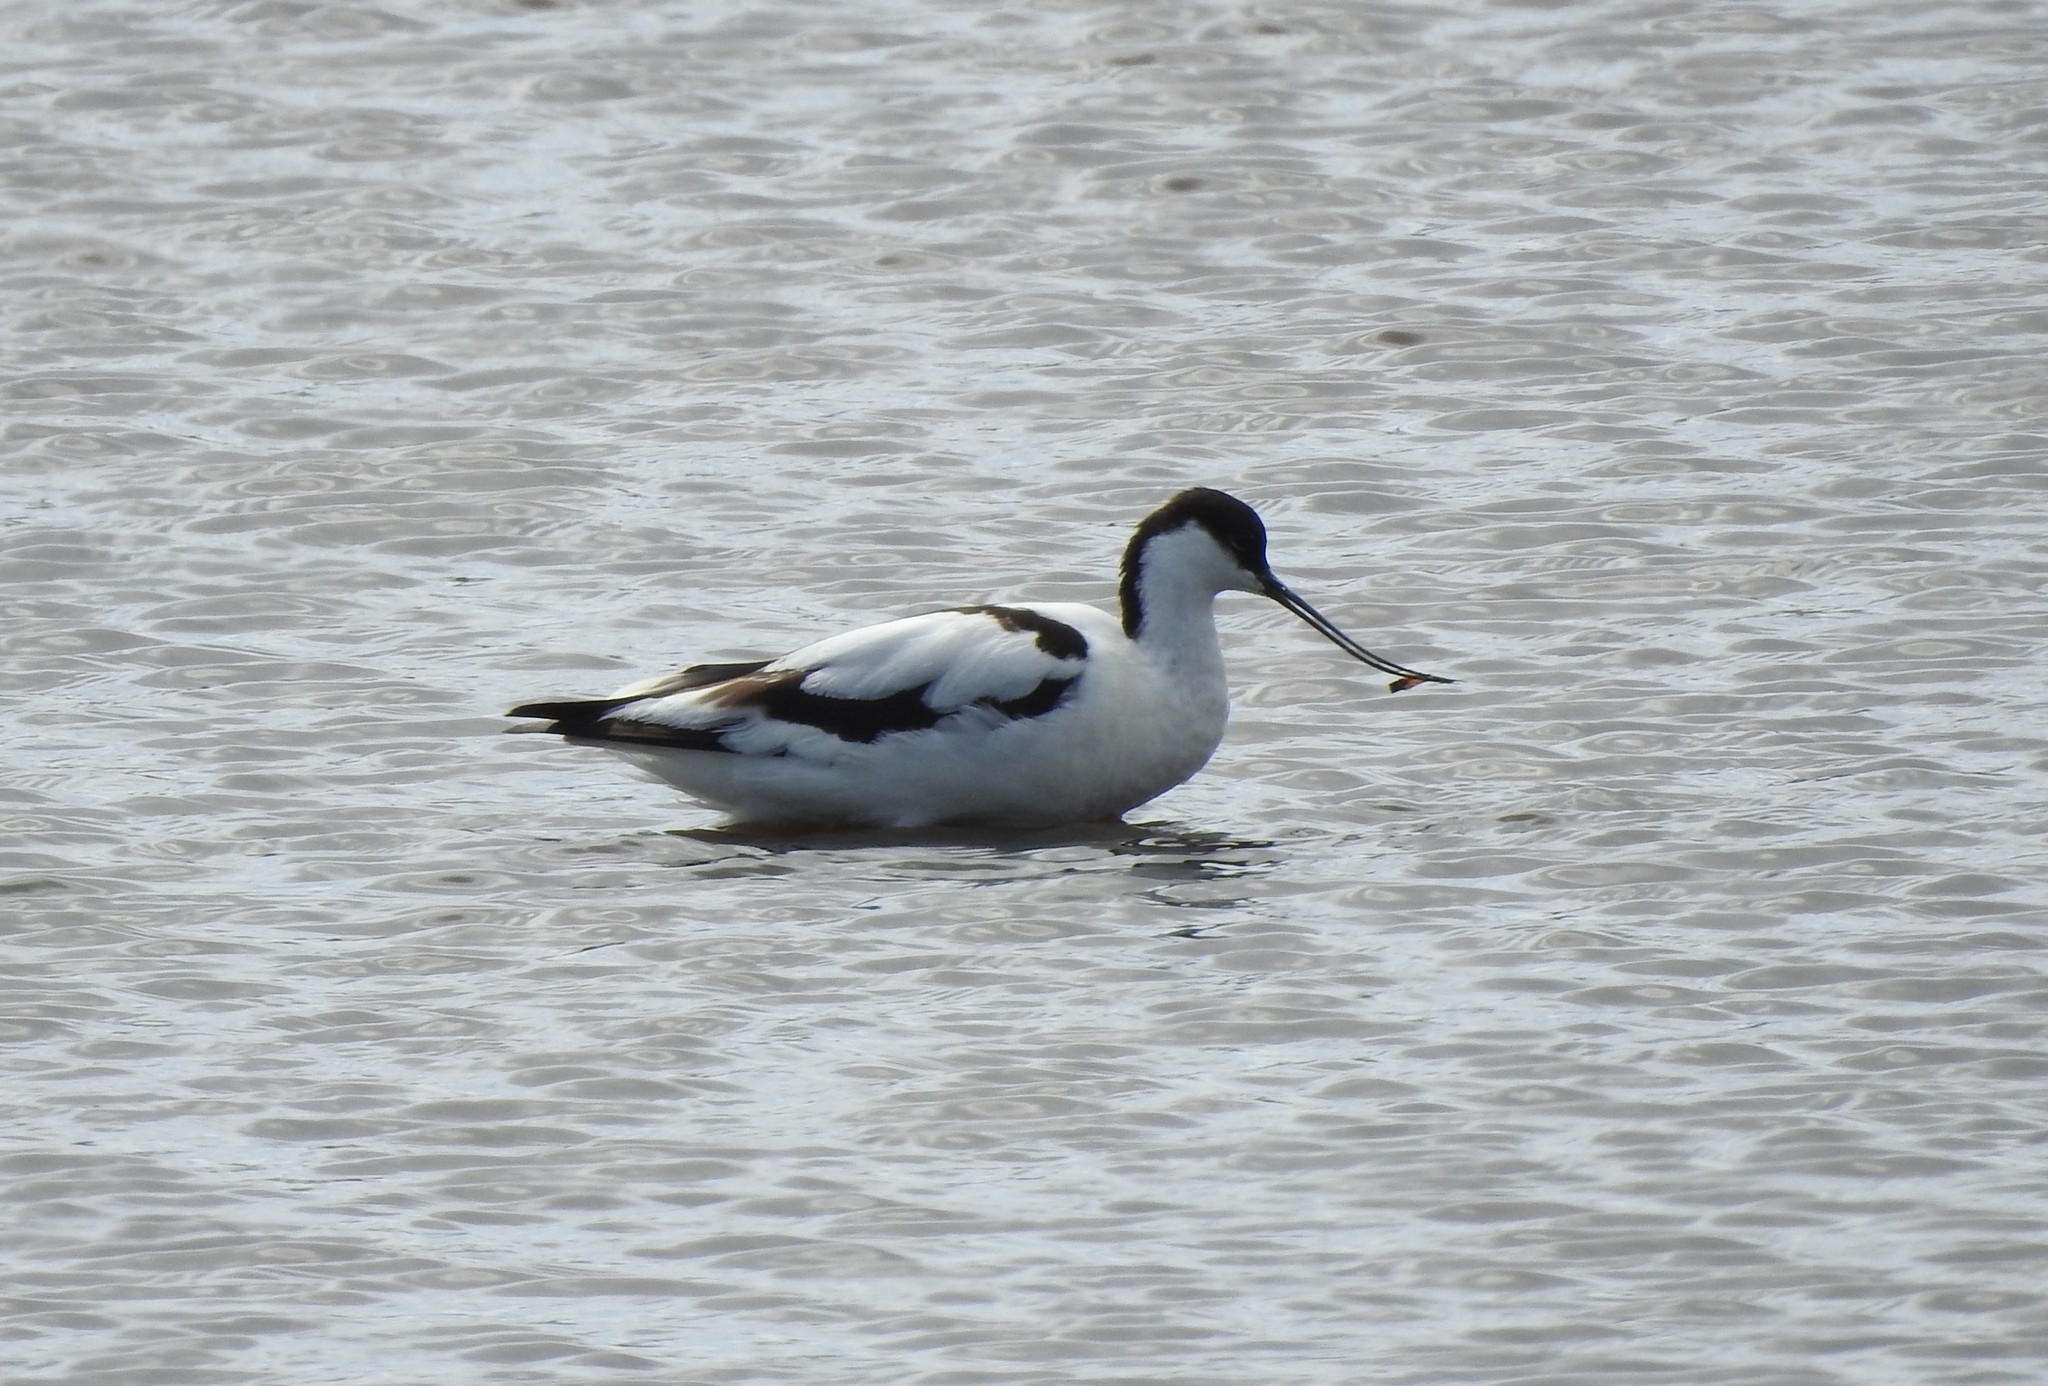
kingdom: Animalia
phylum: Chordata
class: Aves
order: Charadriiformes
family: Recurvirostridae
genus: Recurvirostra
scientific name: Recurvirostra avosetta
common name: Pied avocet
